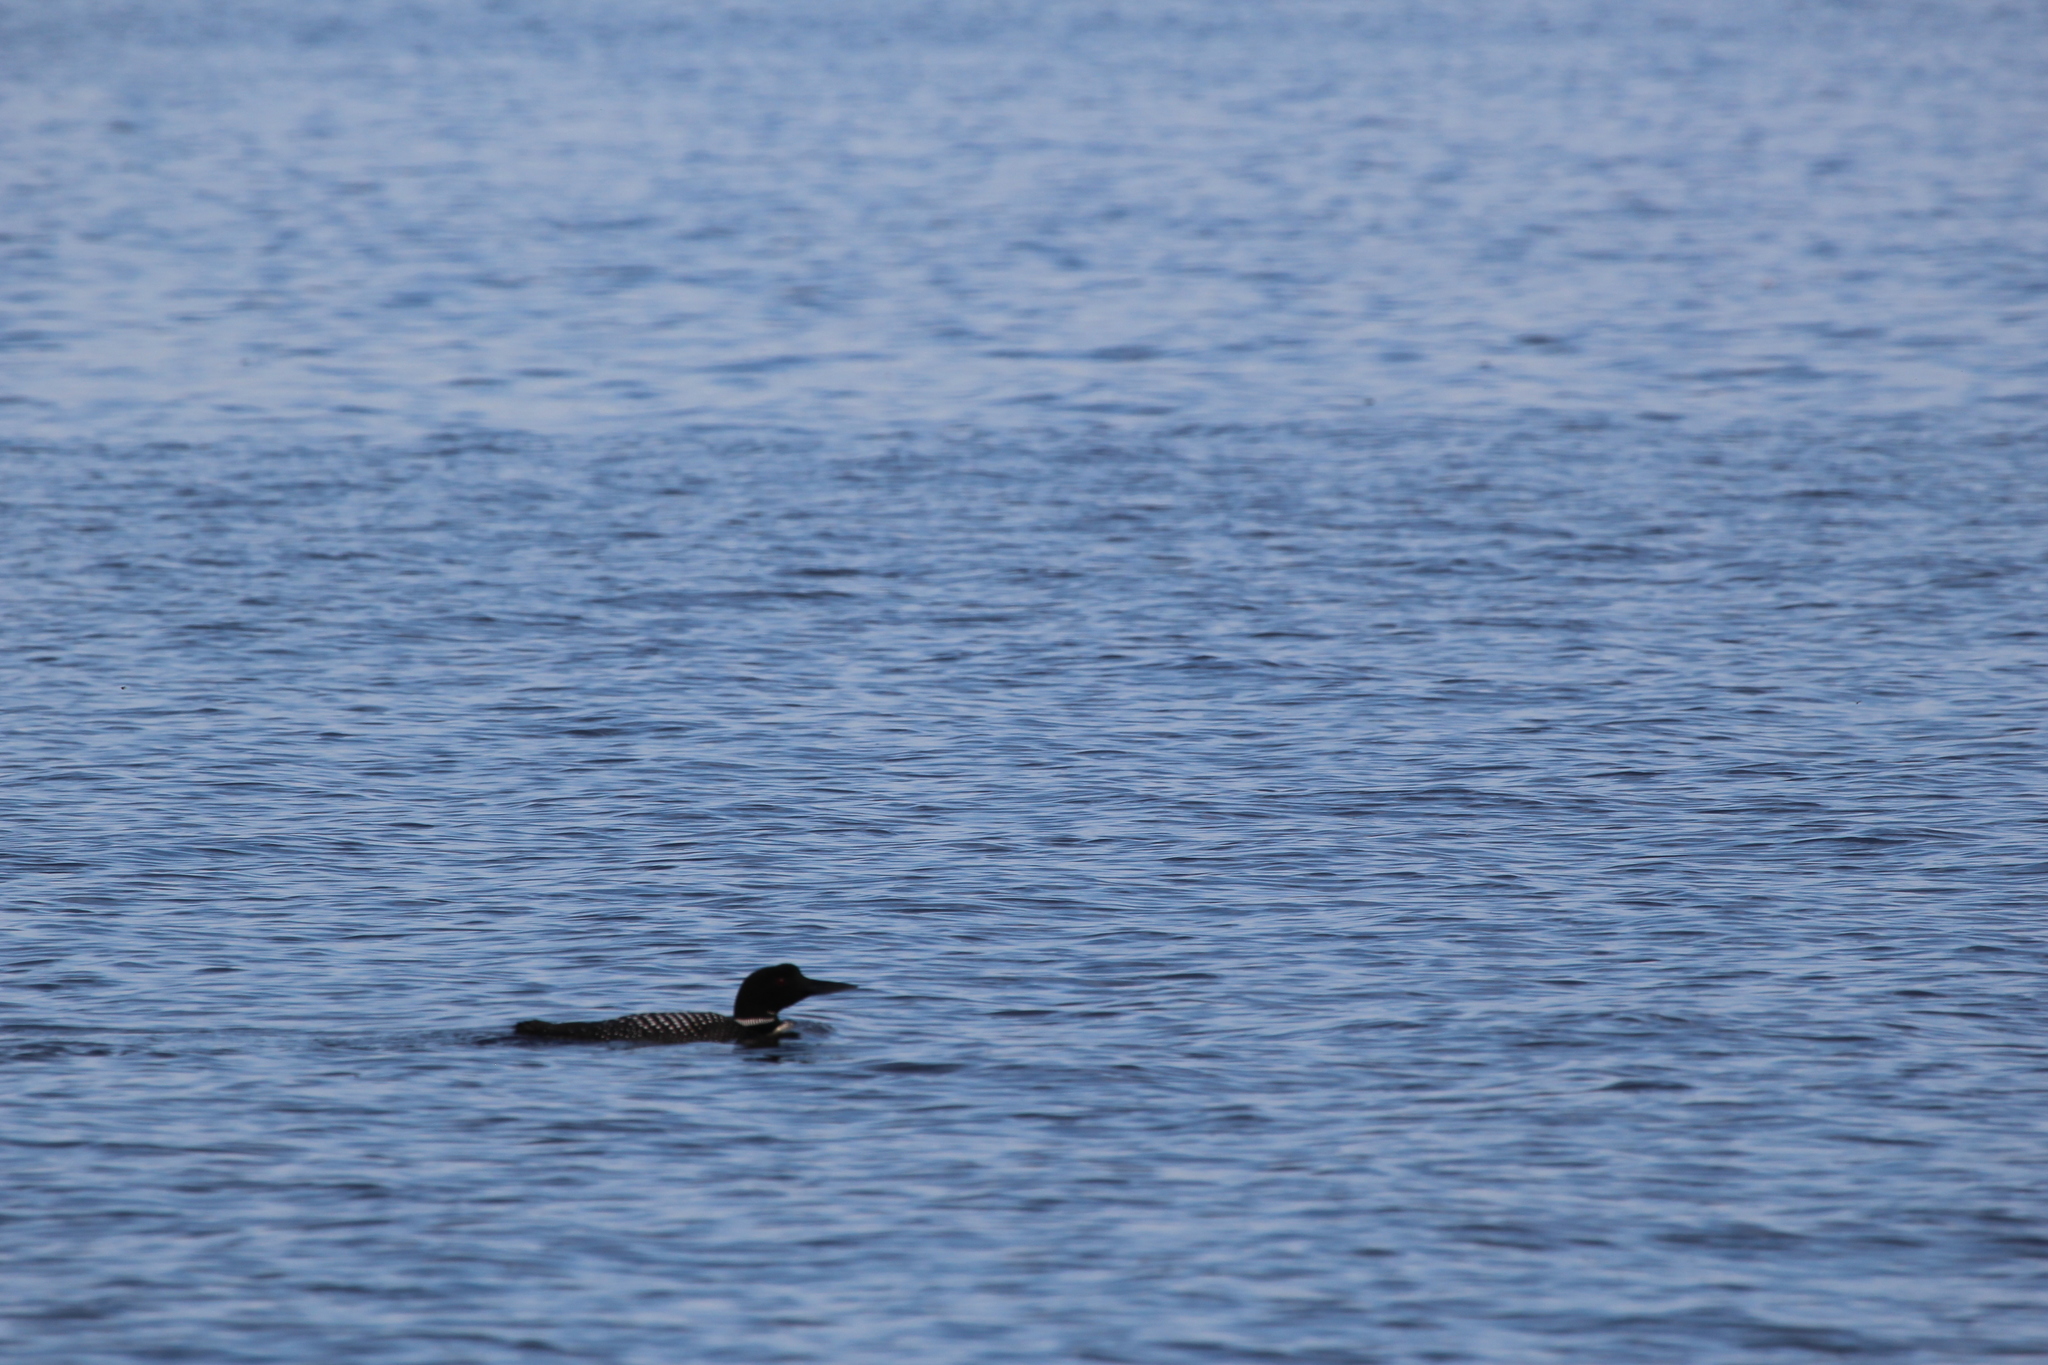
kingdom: Animalia
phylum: Chordata
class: Aves
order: Gaviiformes
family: Gaviidae
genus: Gavia
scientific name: Gavia immer
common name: Common loon
